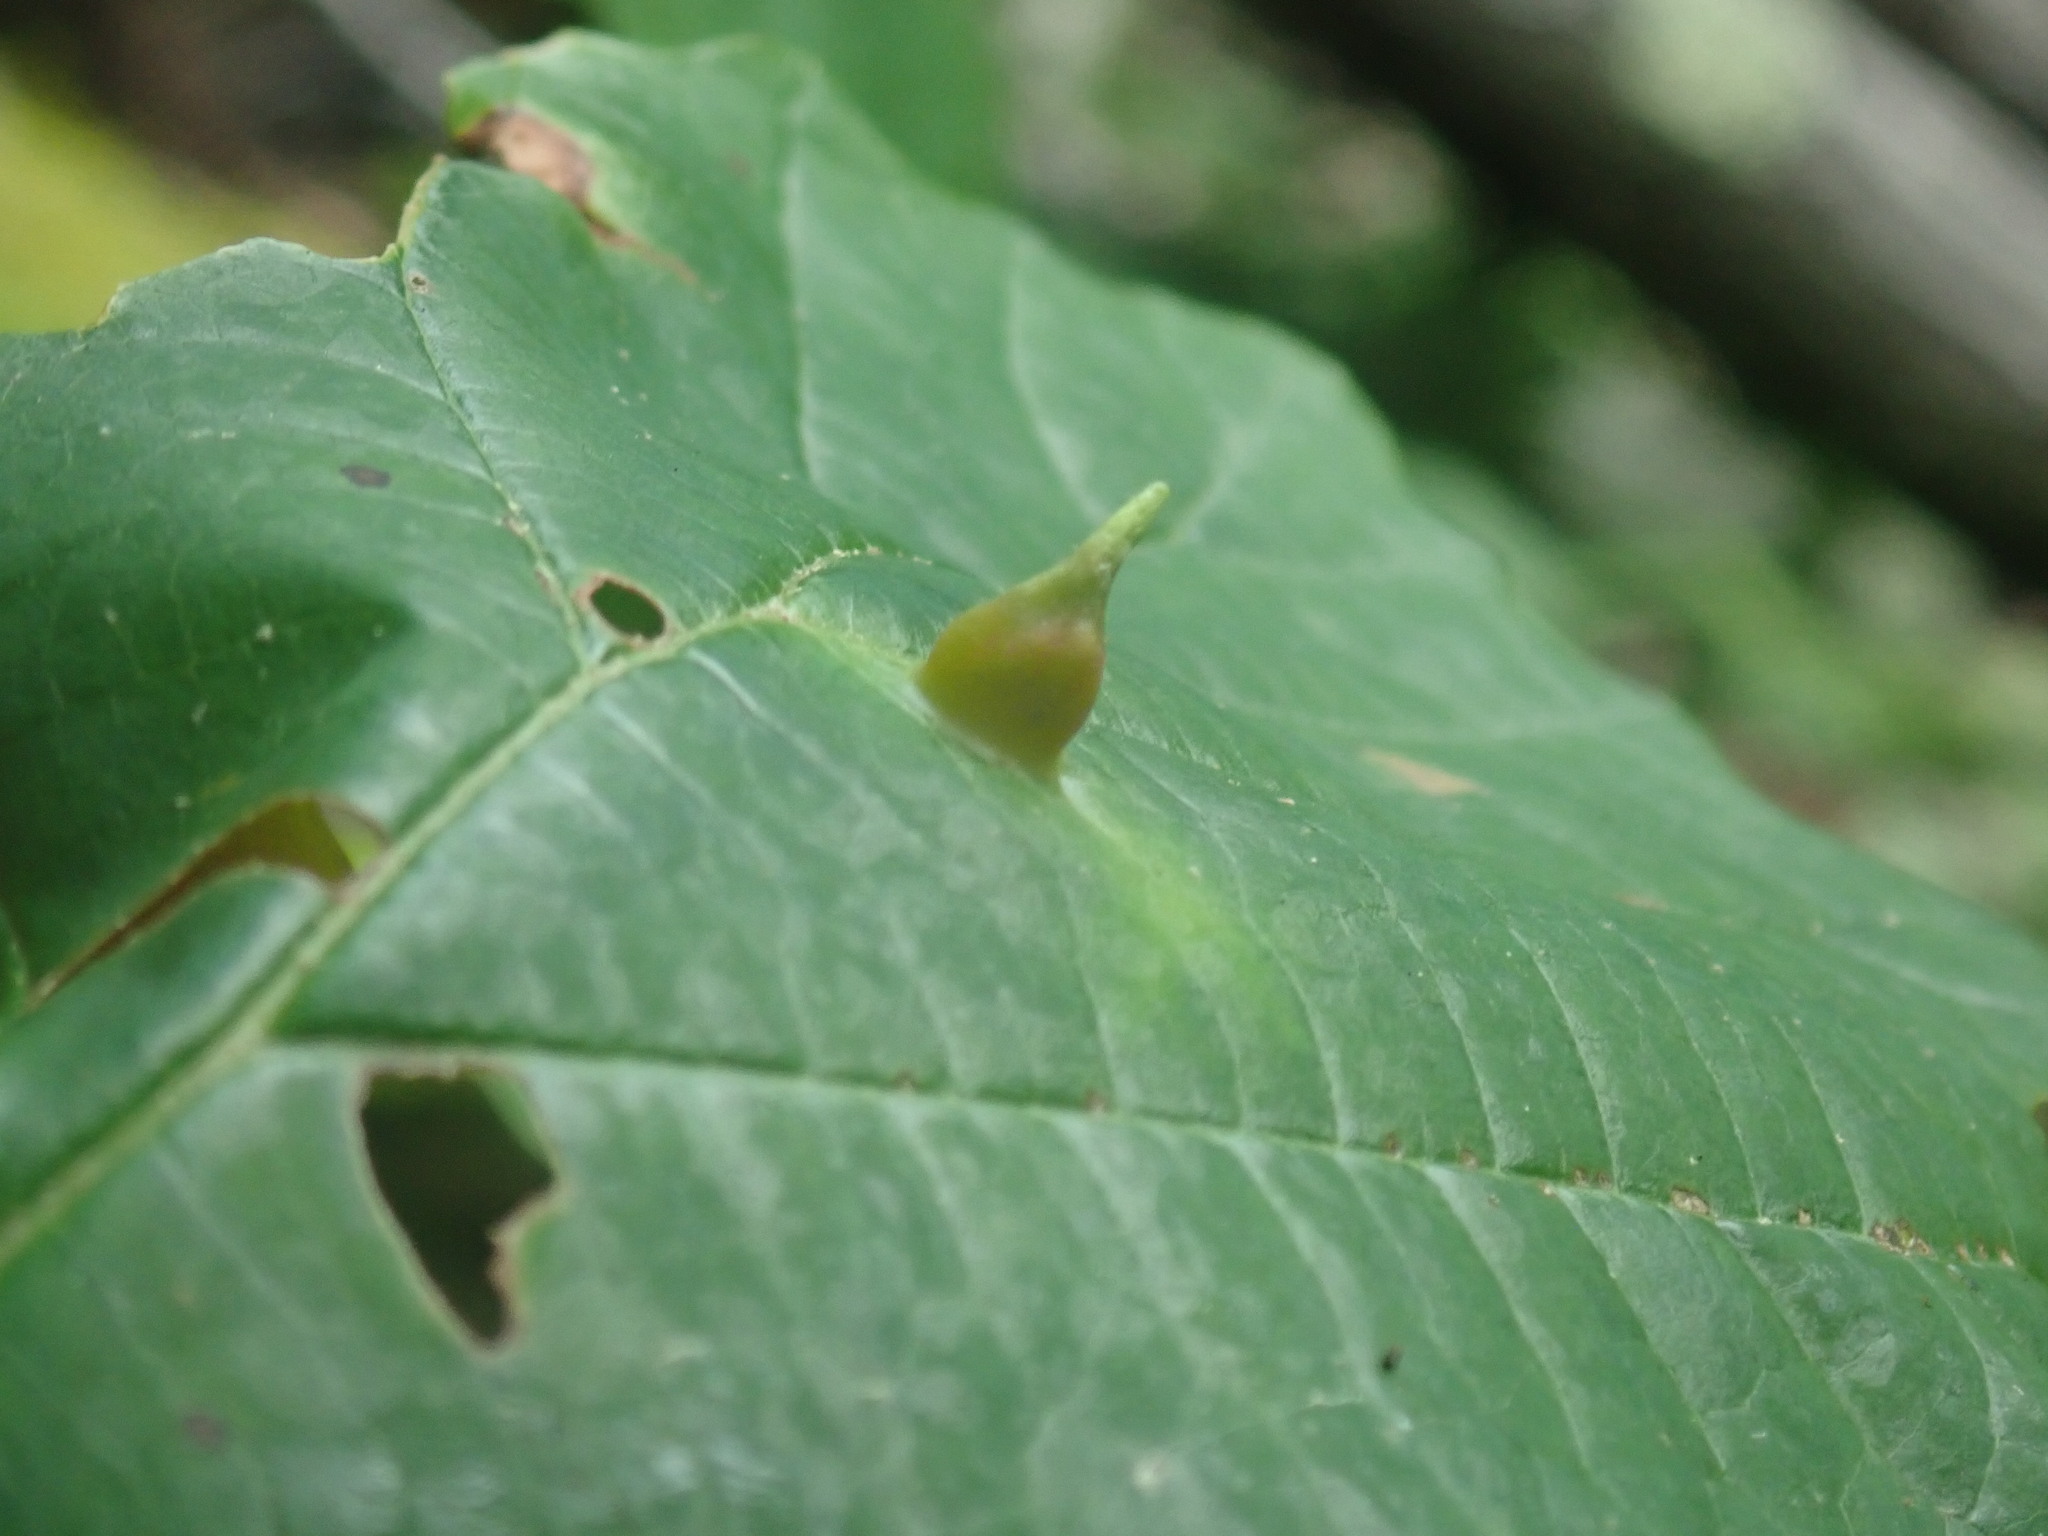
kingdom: Animalia
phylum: Arthropoda
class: Insecta
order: Hemiptera
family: Aphididae
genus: Hormaphis
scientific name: Hormaphis hamamelidis
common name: Witch-hazel cone gall aphid
